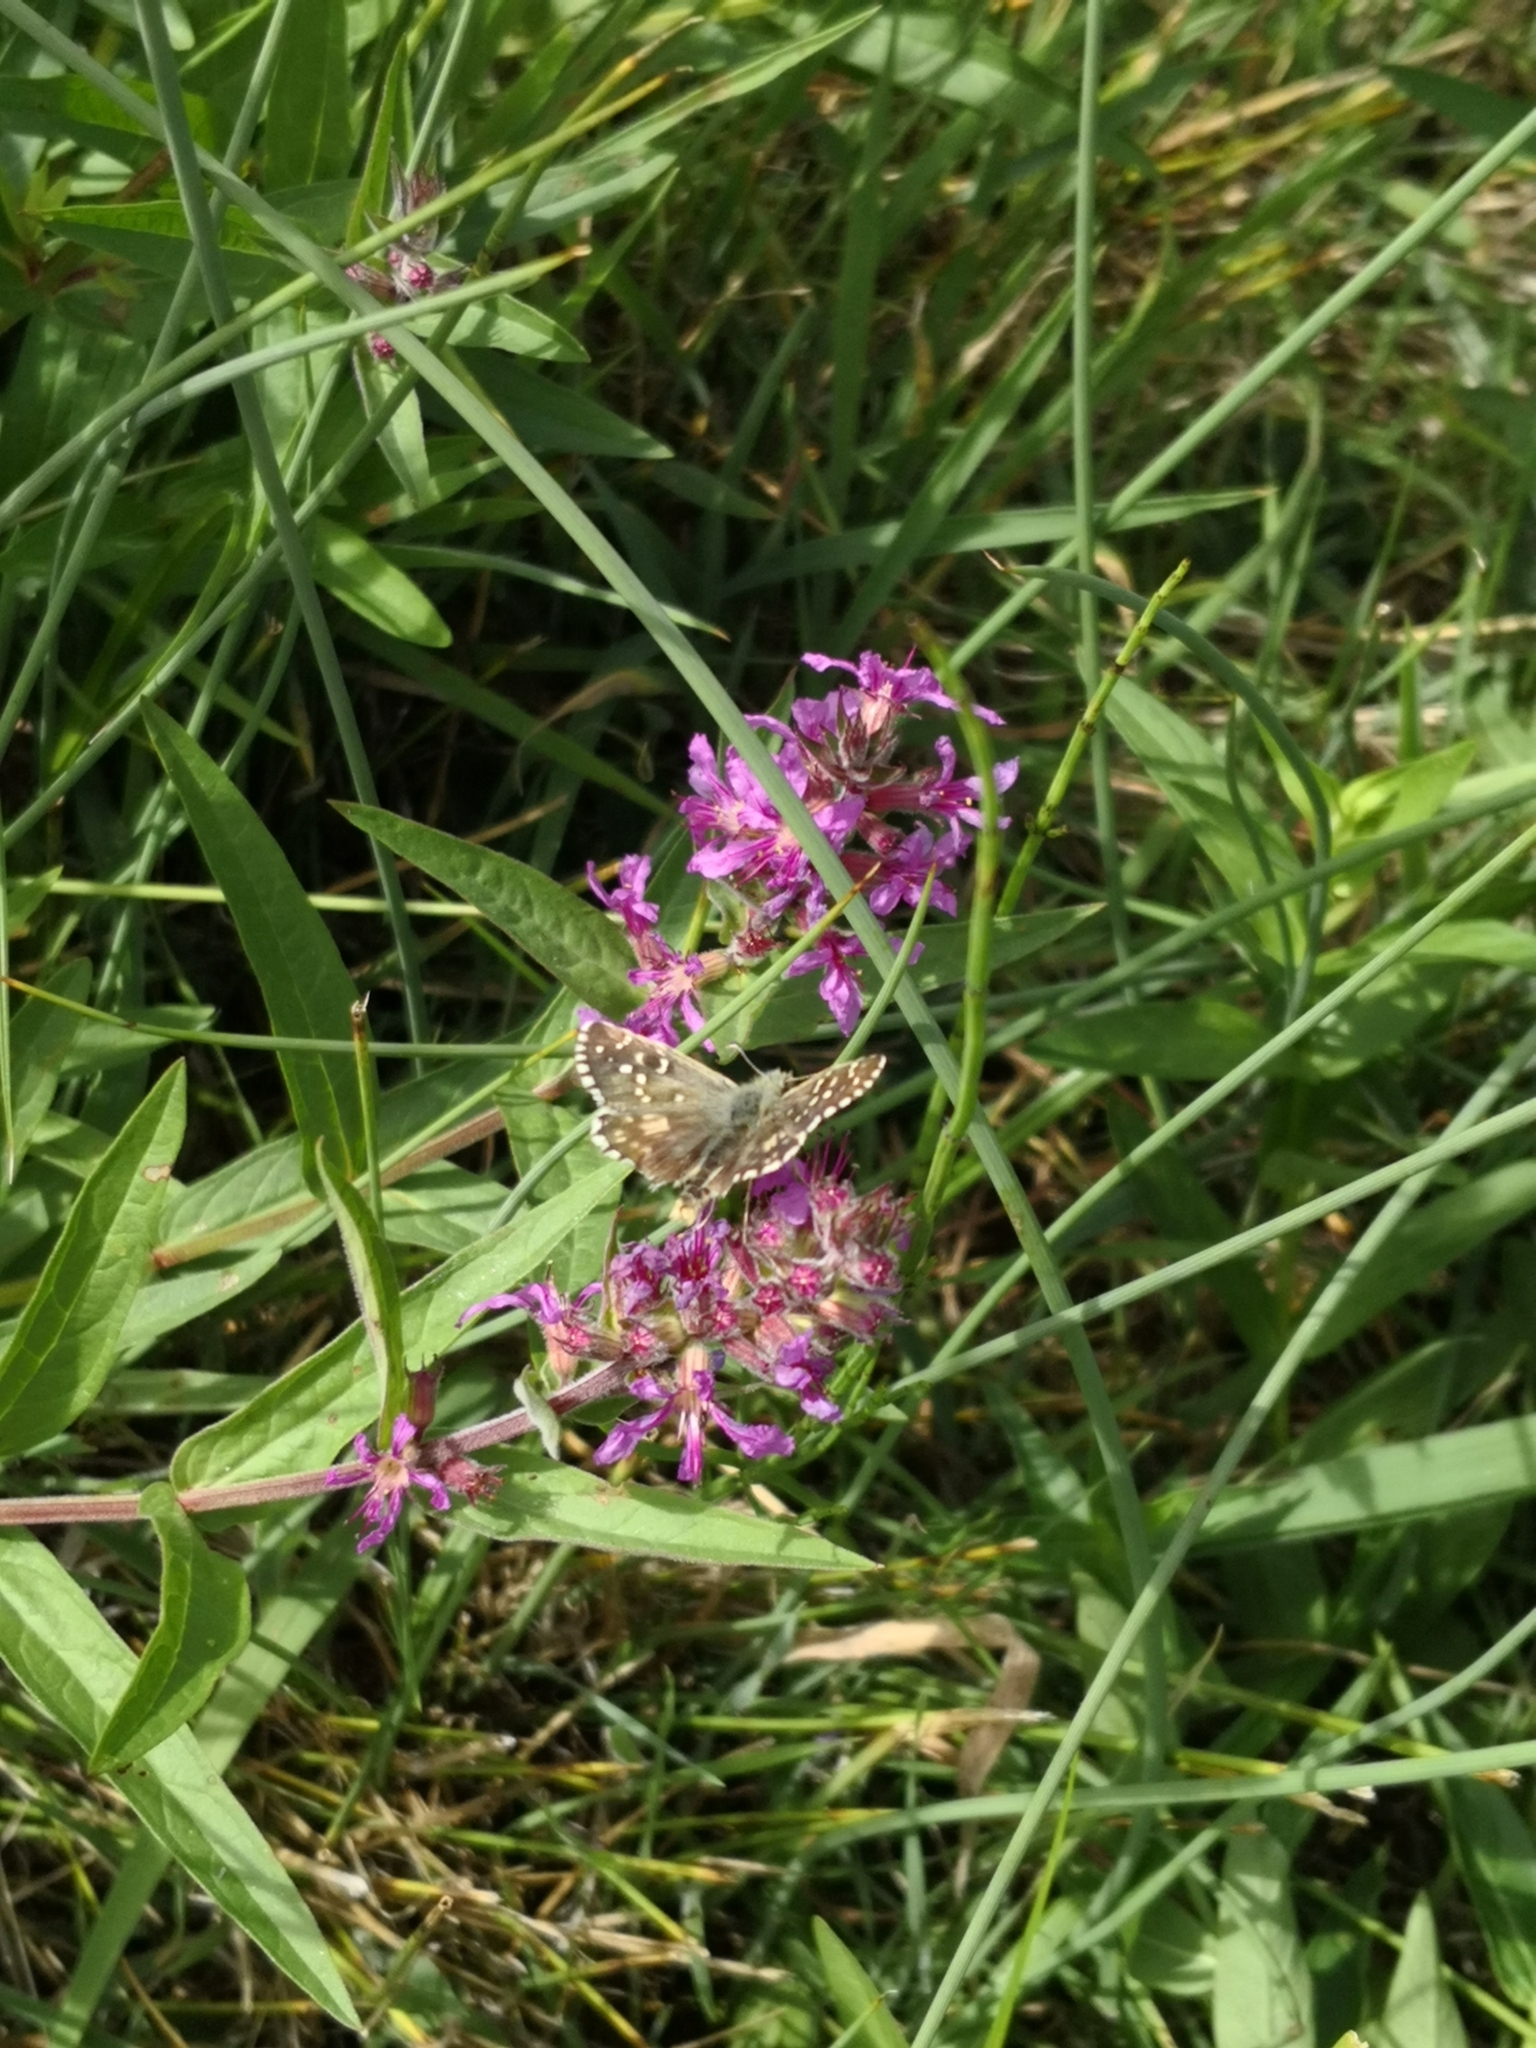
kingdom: Animalia
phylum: Arthropoda
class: Insecta
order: Lepidoptera
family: Hesperiidae
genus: Pyrgus
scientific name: Pyrgus armoricanus
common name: Oberthür's grizzled skipper
